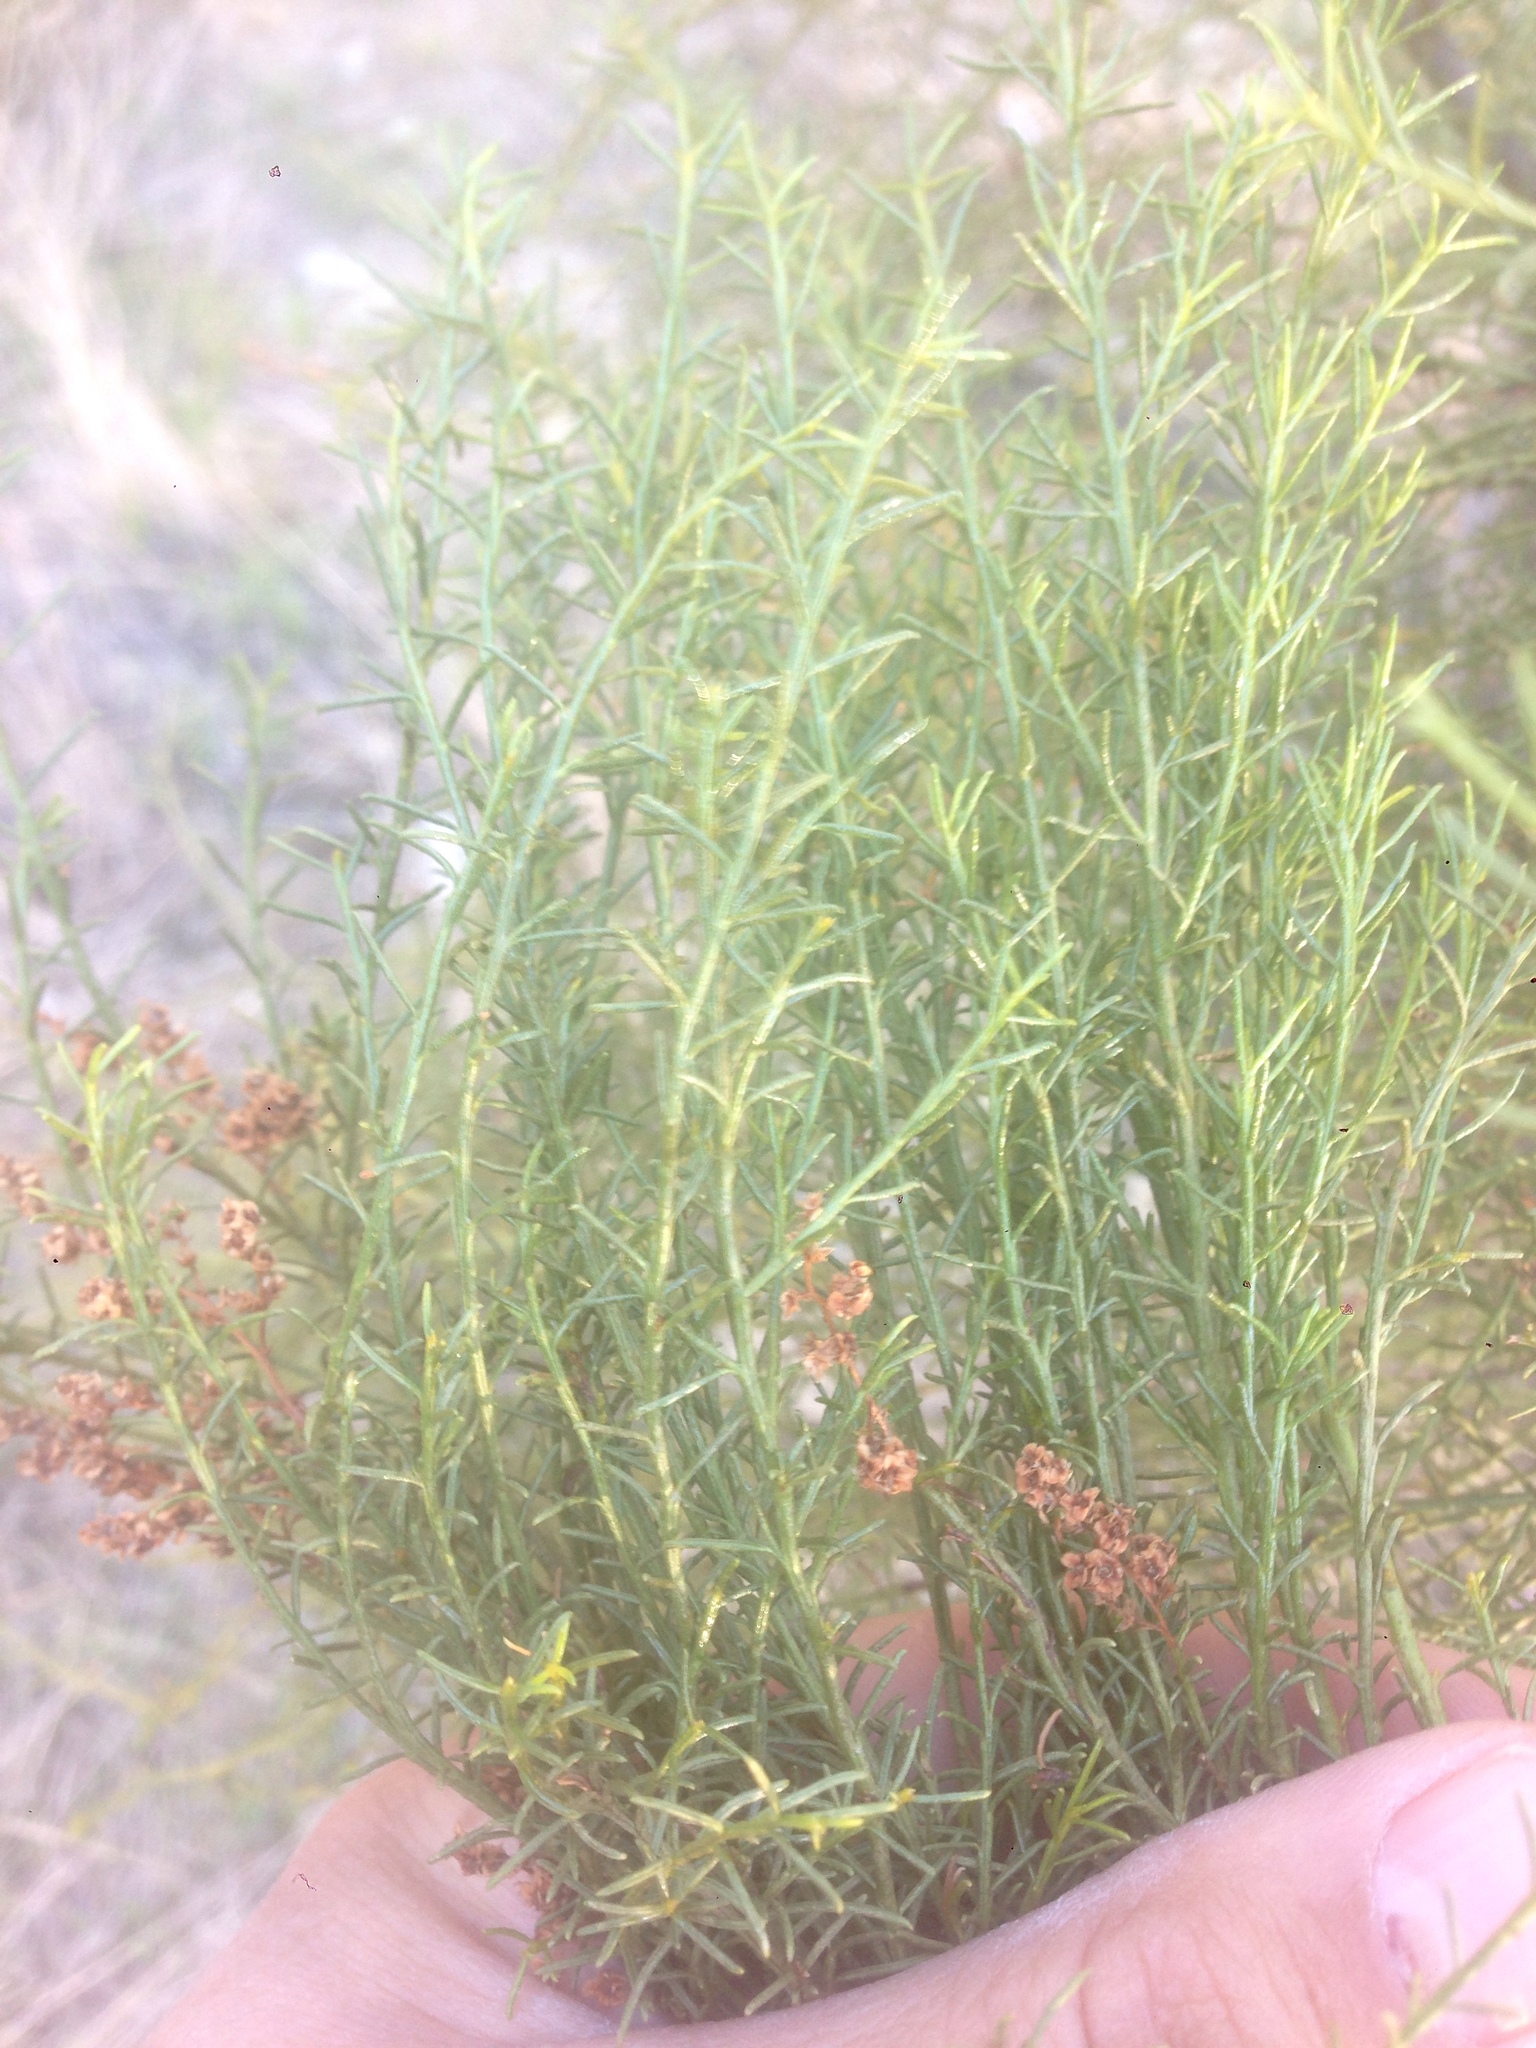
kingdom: Plantae
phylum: Tracheophyta
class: Magnoliopsida
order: Rosales
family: Rosaceae
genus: Adenostoma
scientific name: Adenostoma sparsifolium
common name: Red shank
